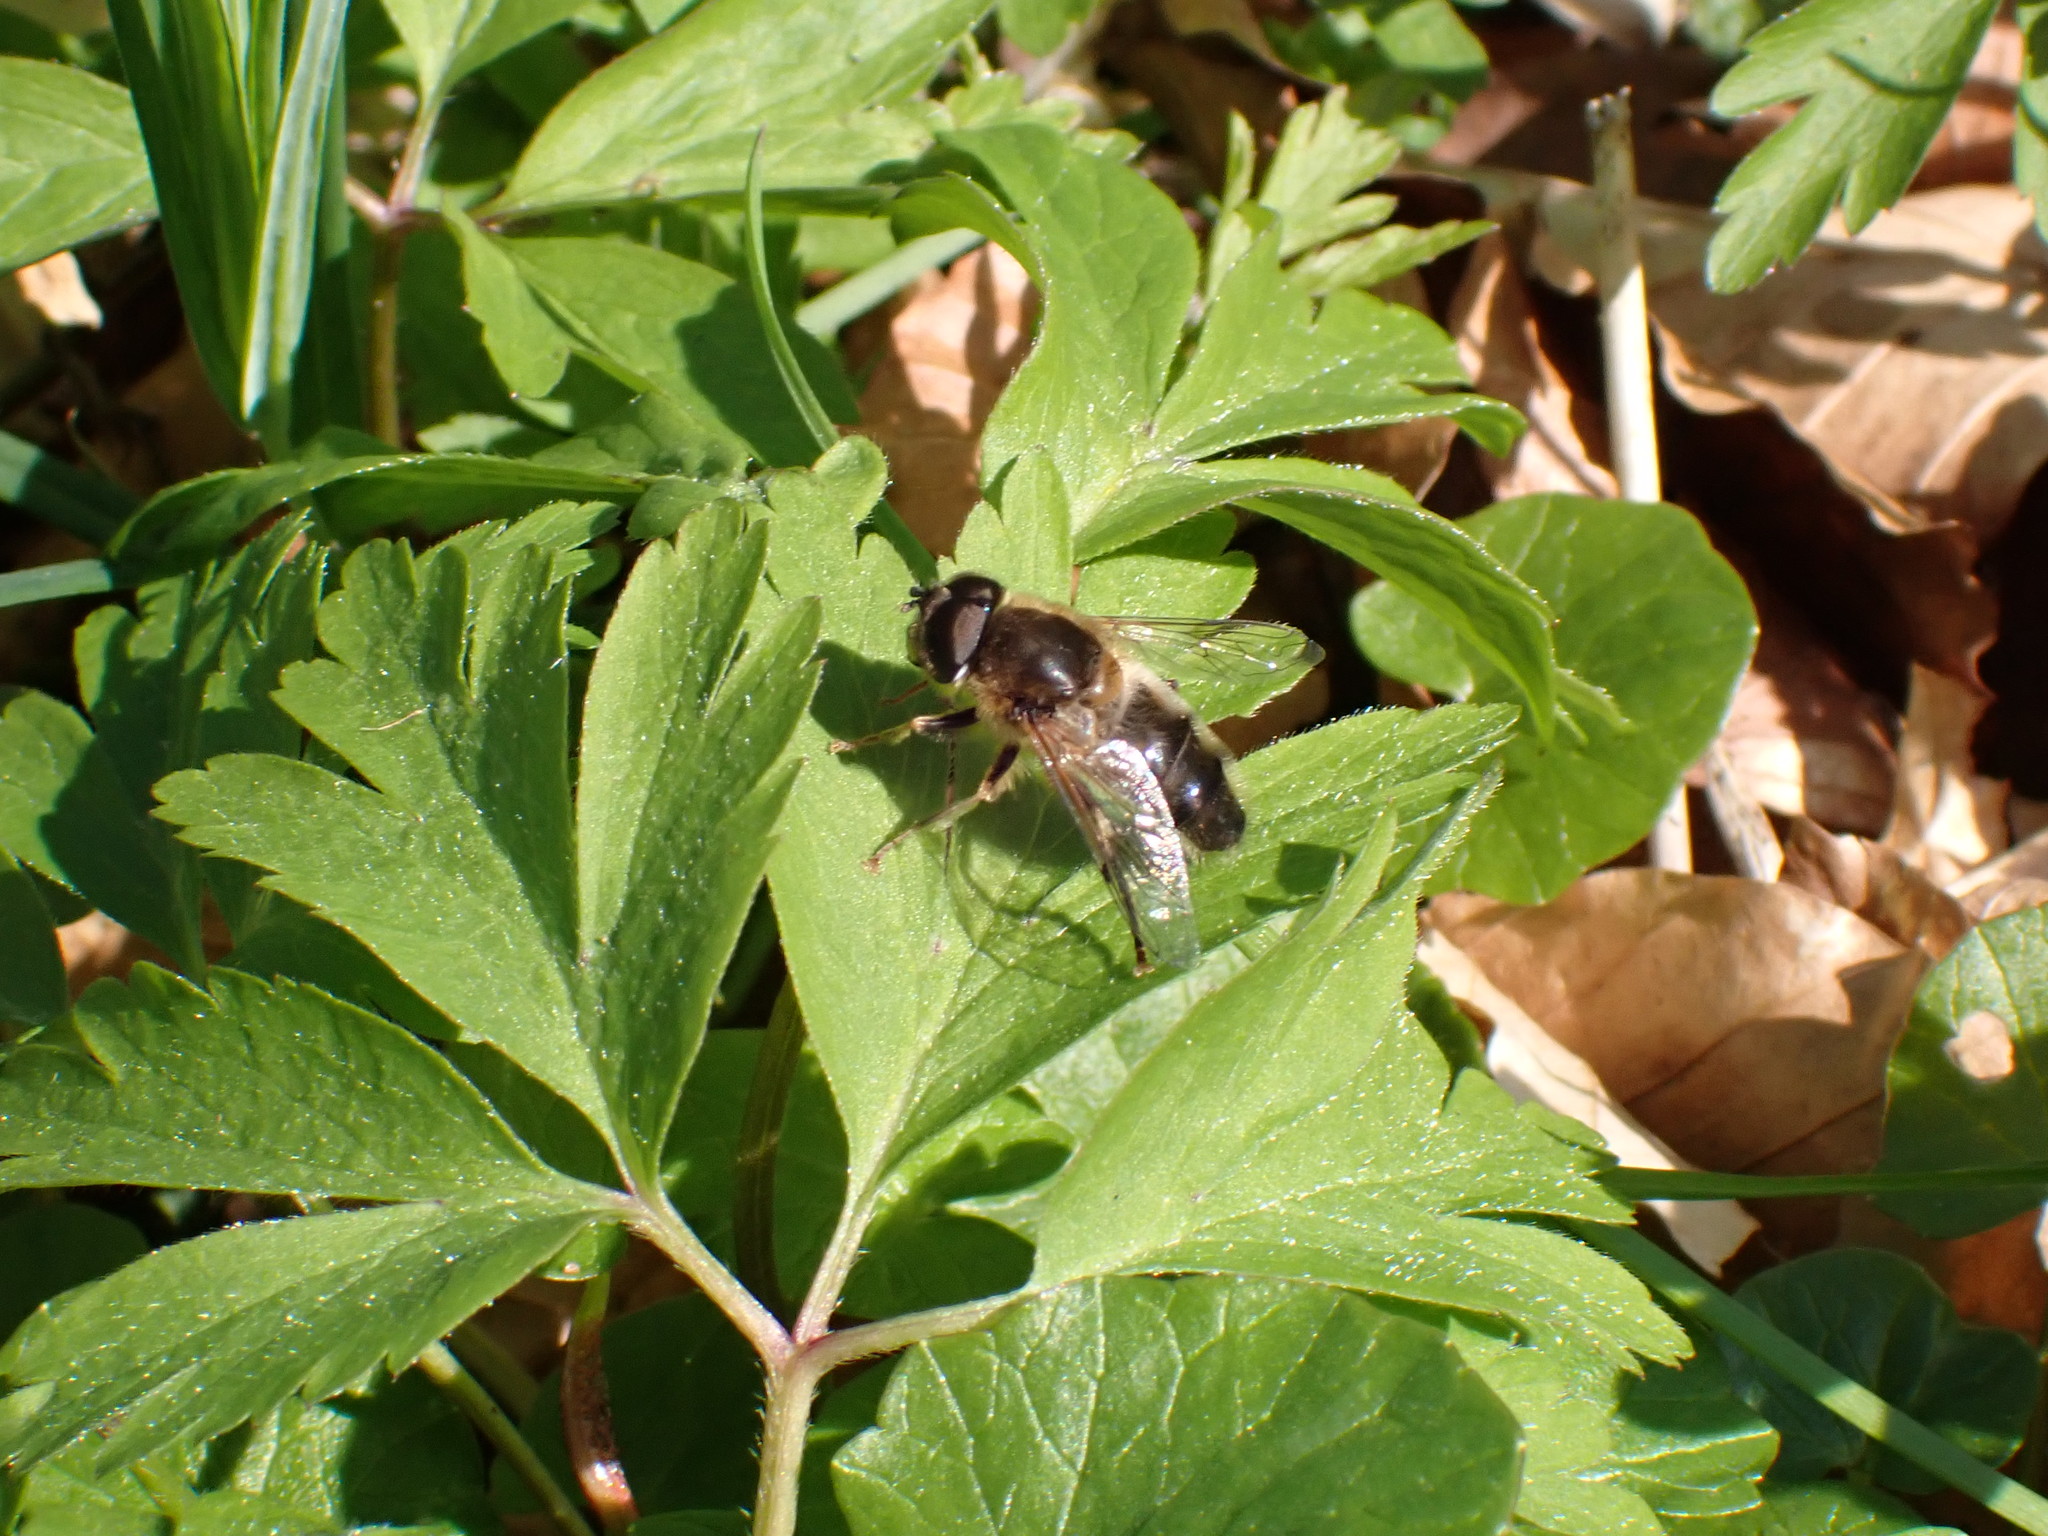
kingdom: Animalia
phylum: Arthropoda
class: Insecta
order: Diptera
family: Syrphidae
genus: Eristalis
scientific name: Eristalis pertinax
